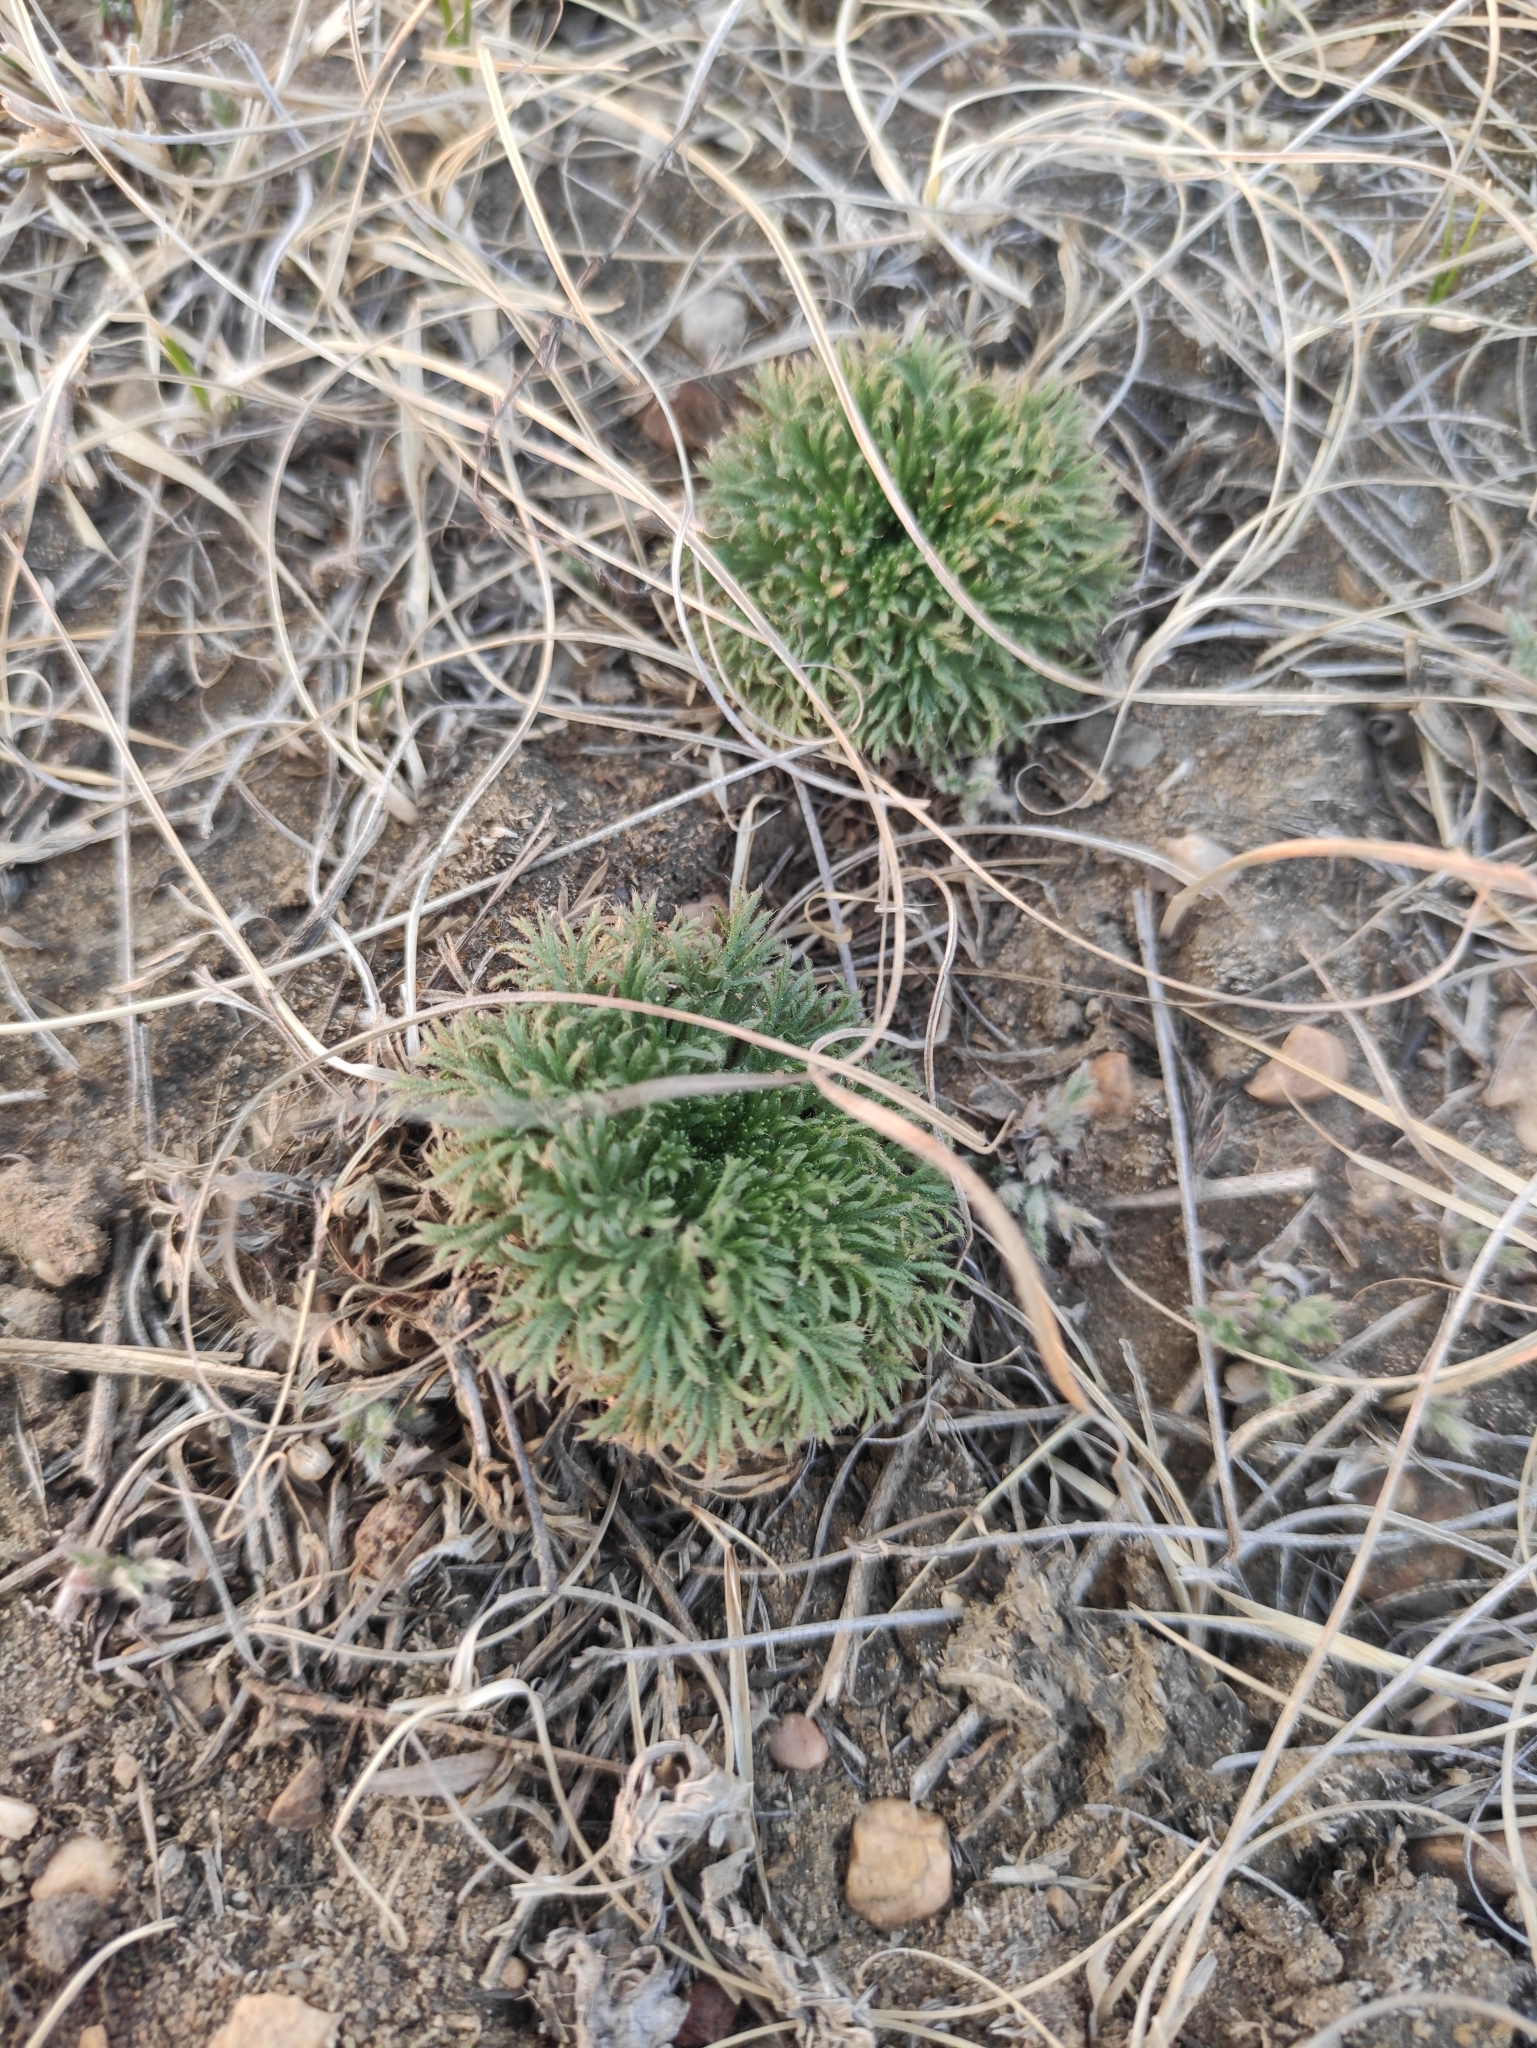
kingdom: Plantae
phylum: Tracheophyta
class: Magnoliopsida
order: Rosales
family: Rosaceae
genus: Chamaerhodos
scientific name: Chamaerhodos erecta
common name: American chamaerhodos
